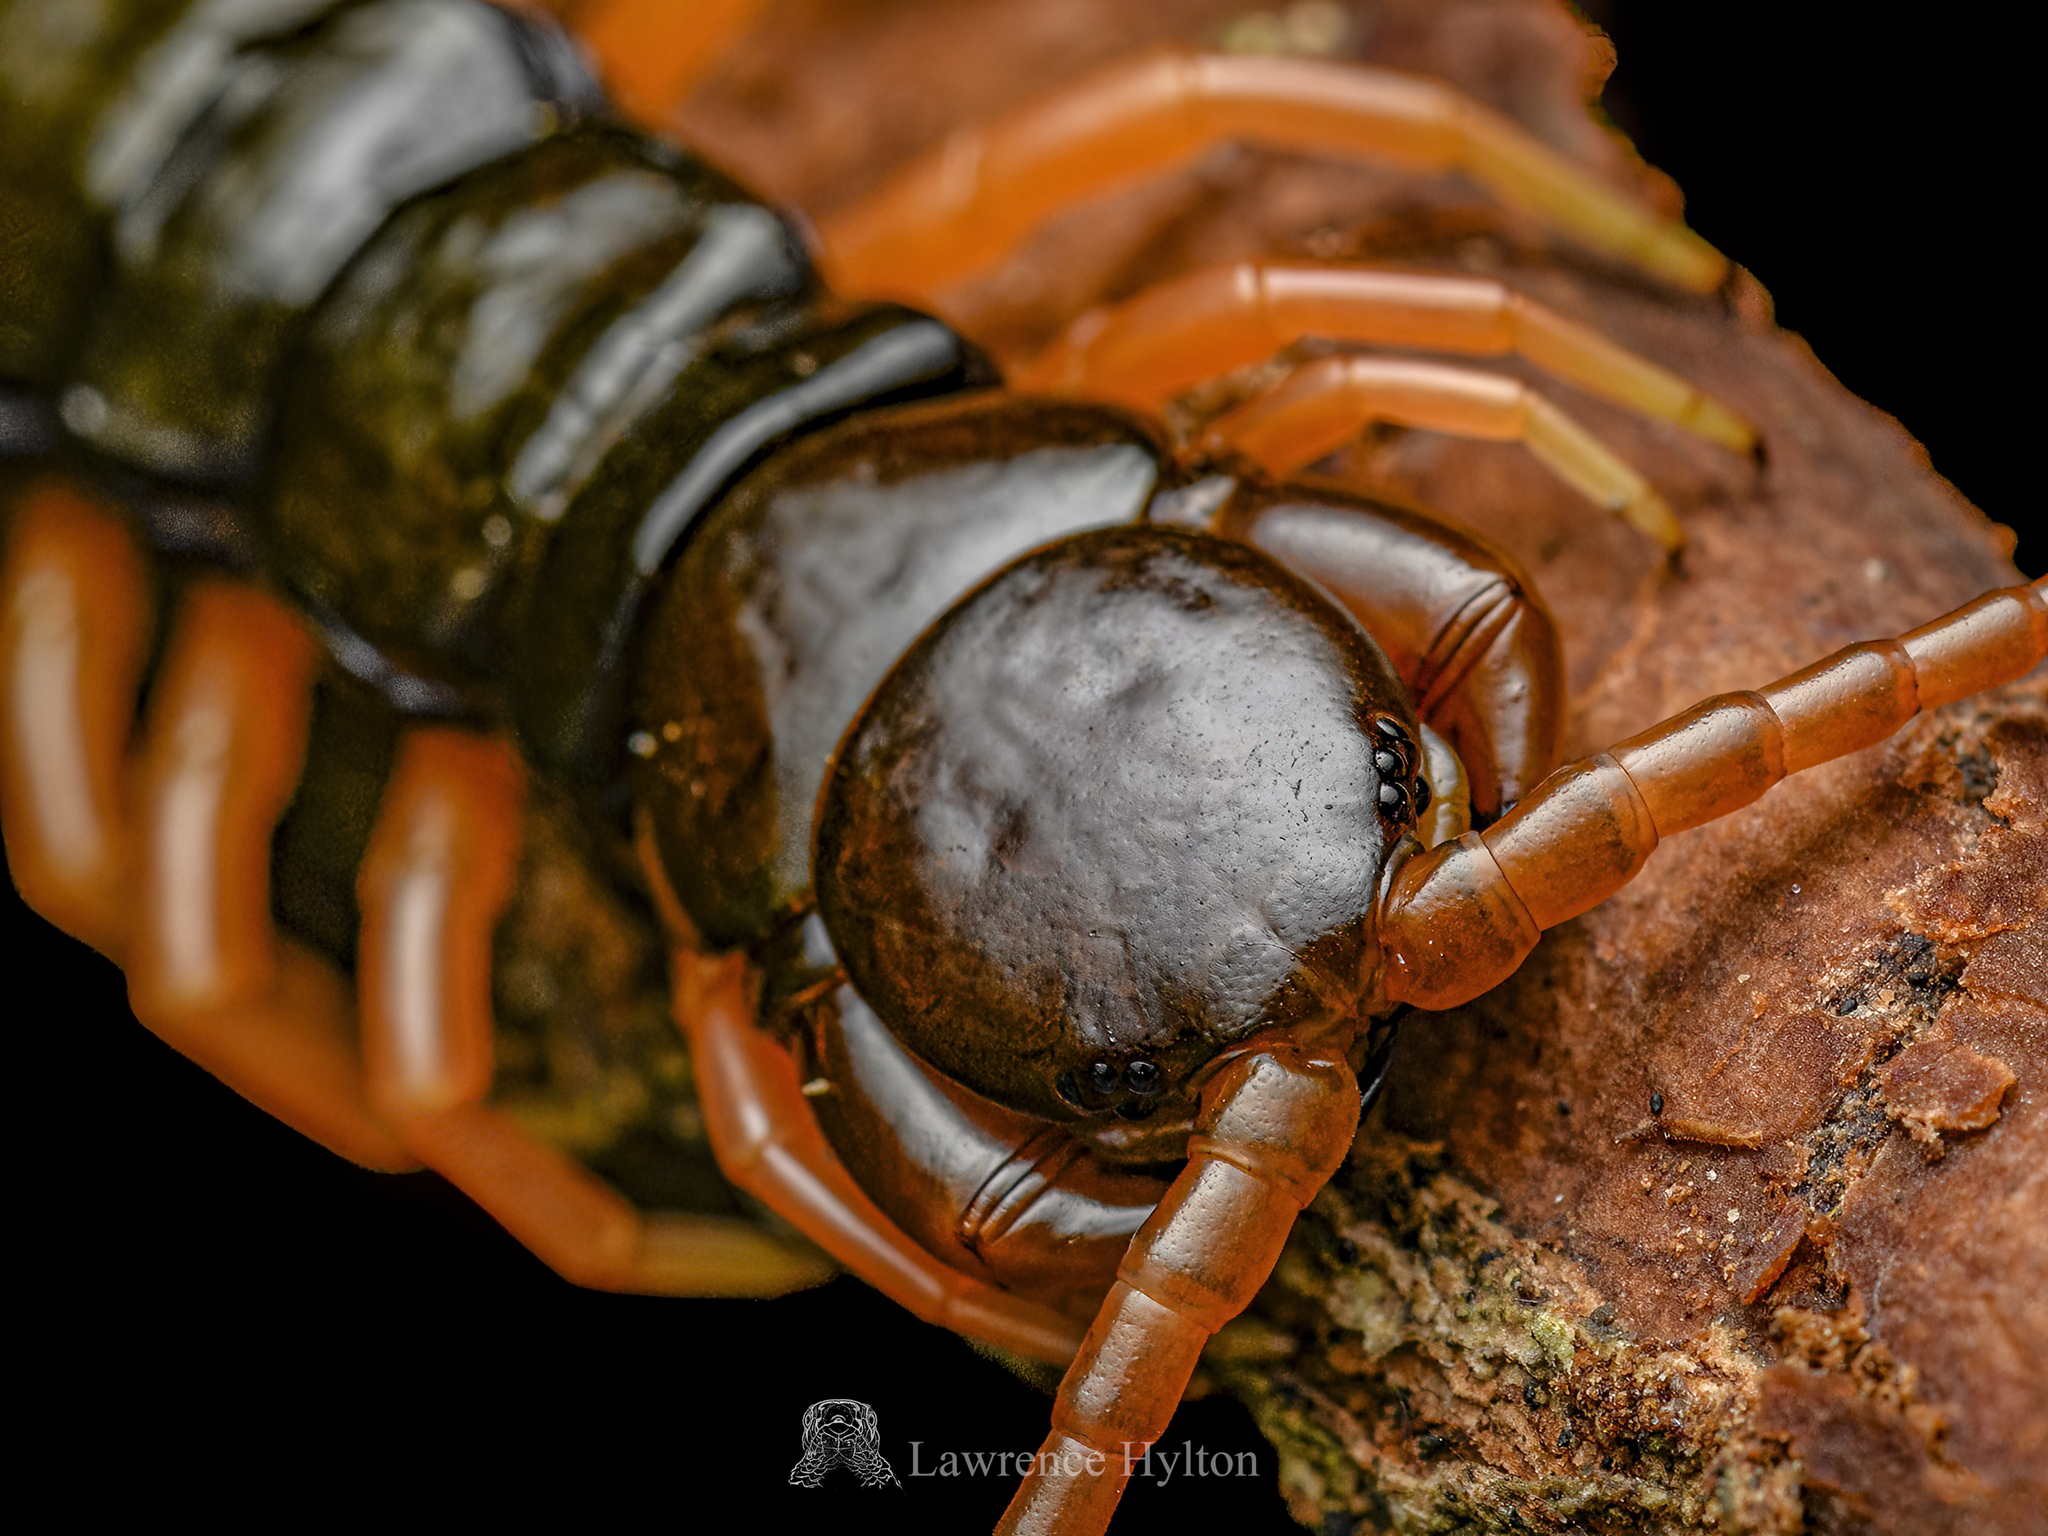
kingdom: Animalia
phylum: Arthropoda
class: Chilopoda
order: Scolopendromorpha
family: Scolopendridae
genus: Scolopendra
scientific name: Scolopendra hainana
